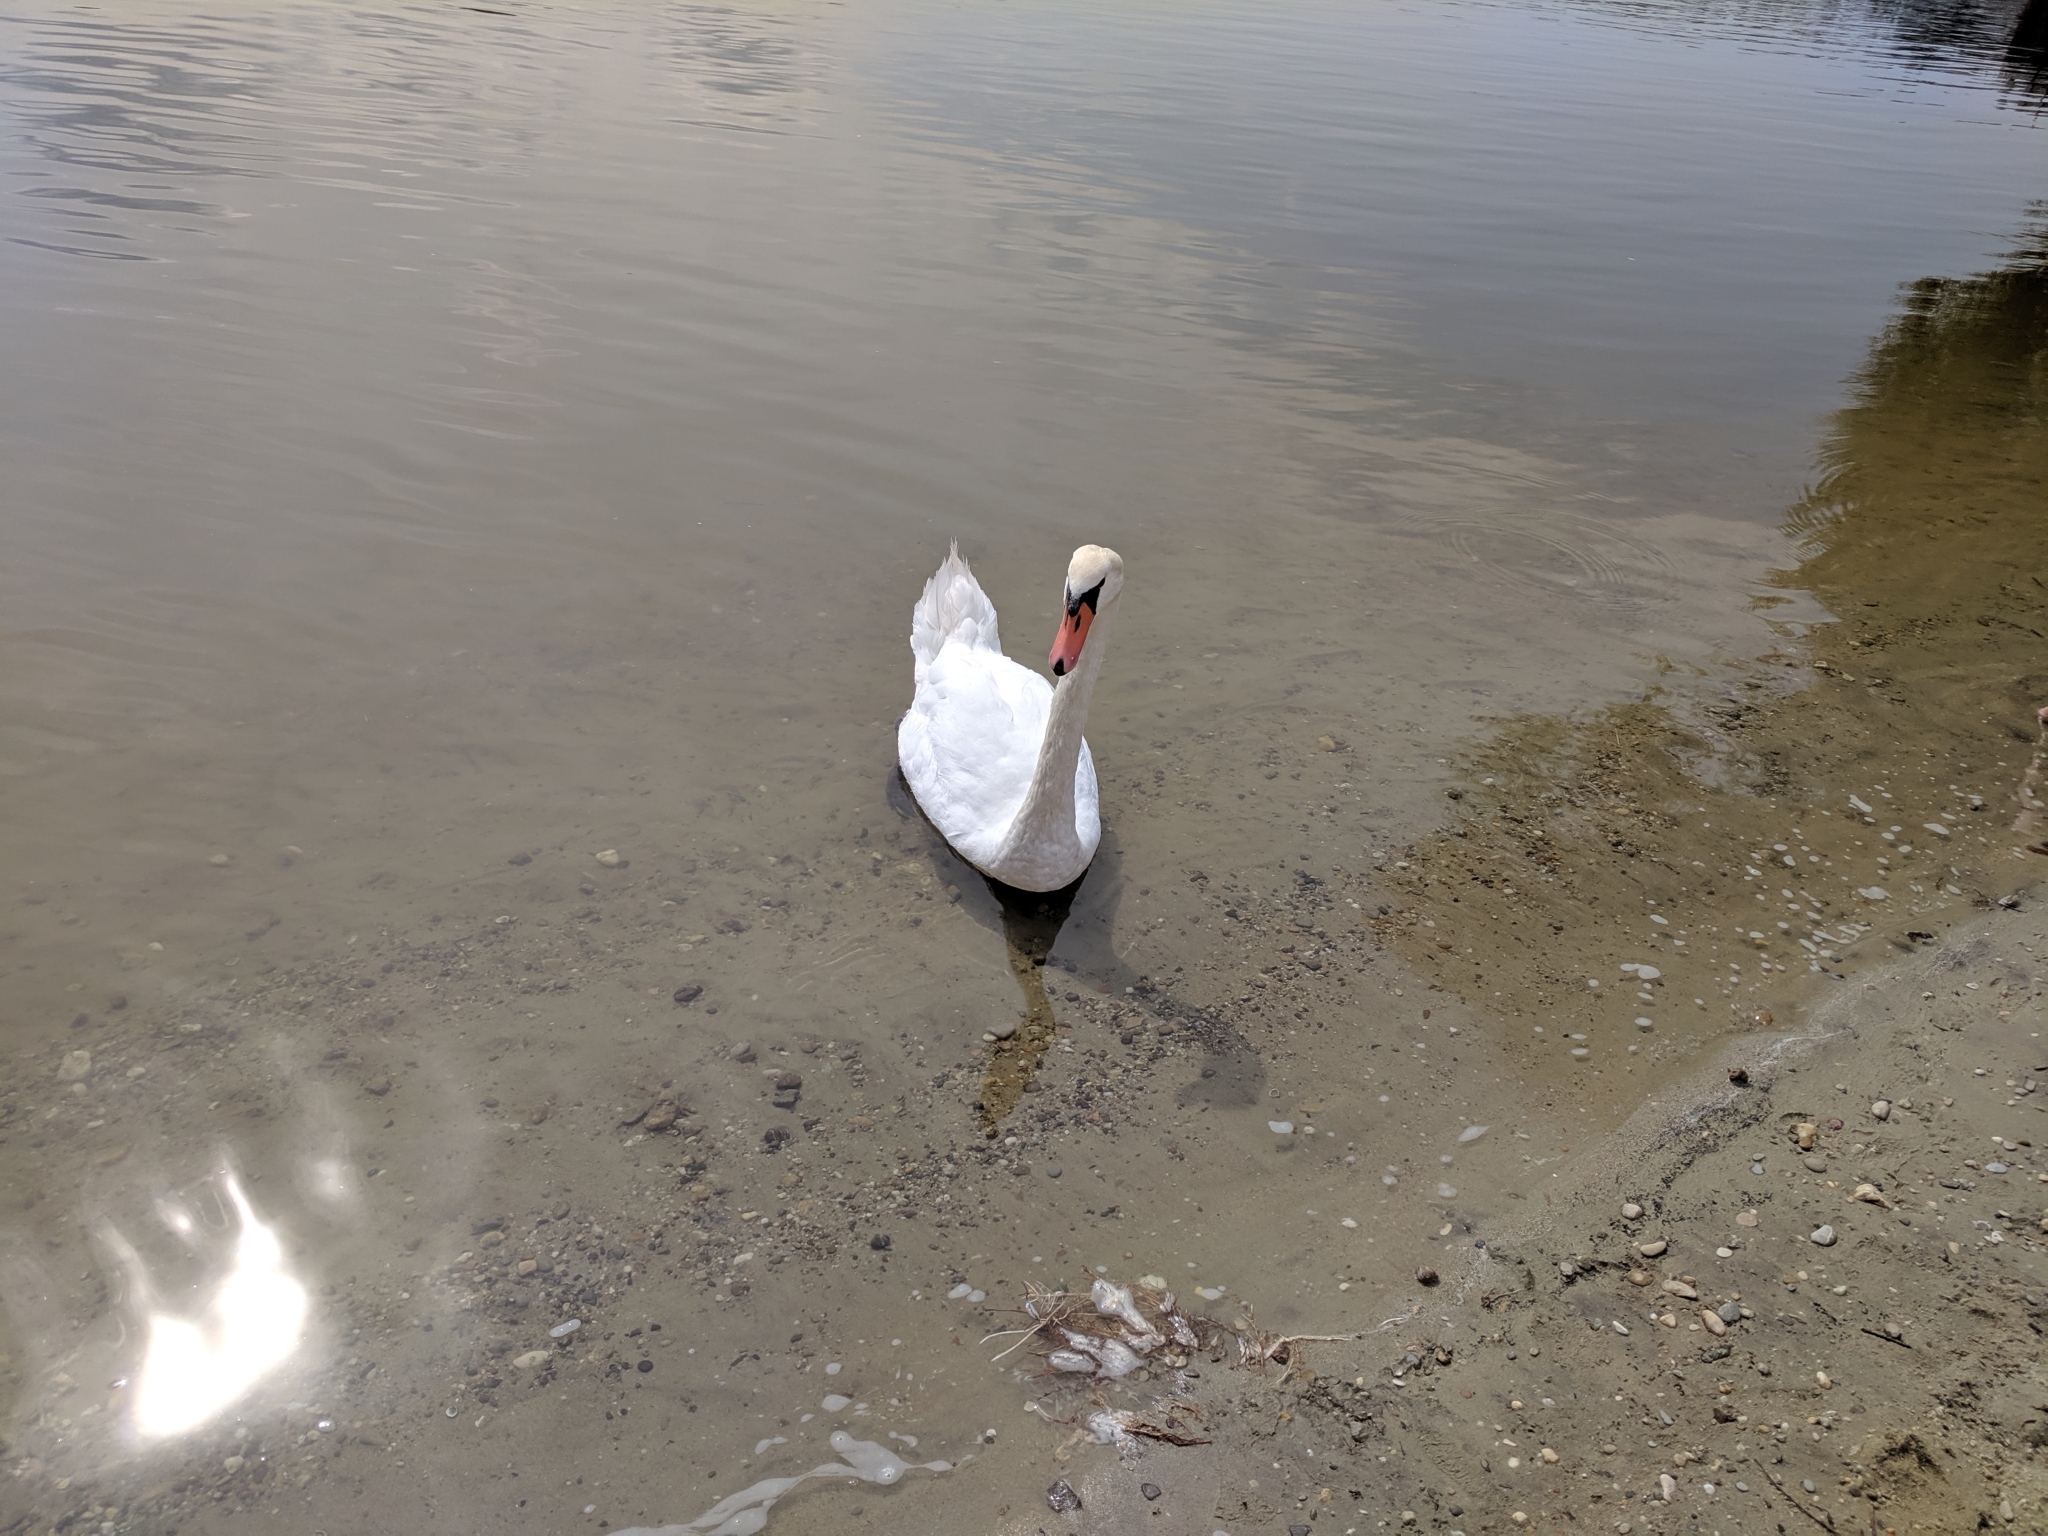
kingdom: Animalia
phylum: Chordata
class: Aves
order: Anseriformes
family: Anatidae
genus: Cygnus
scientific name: Cygnus olor
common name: Mute swan
